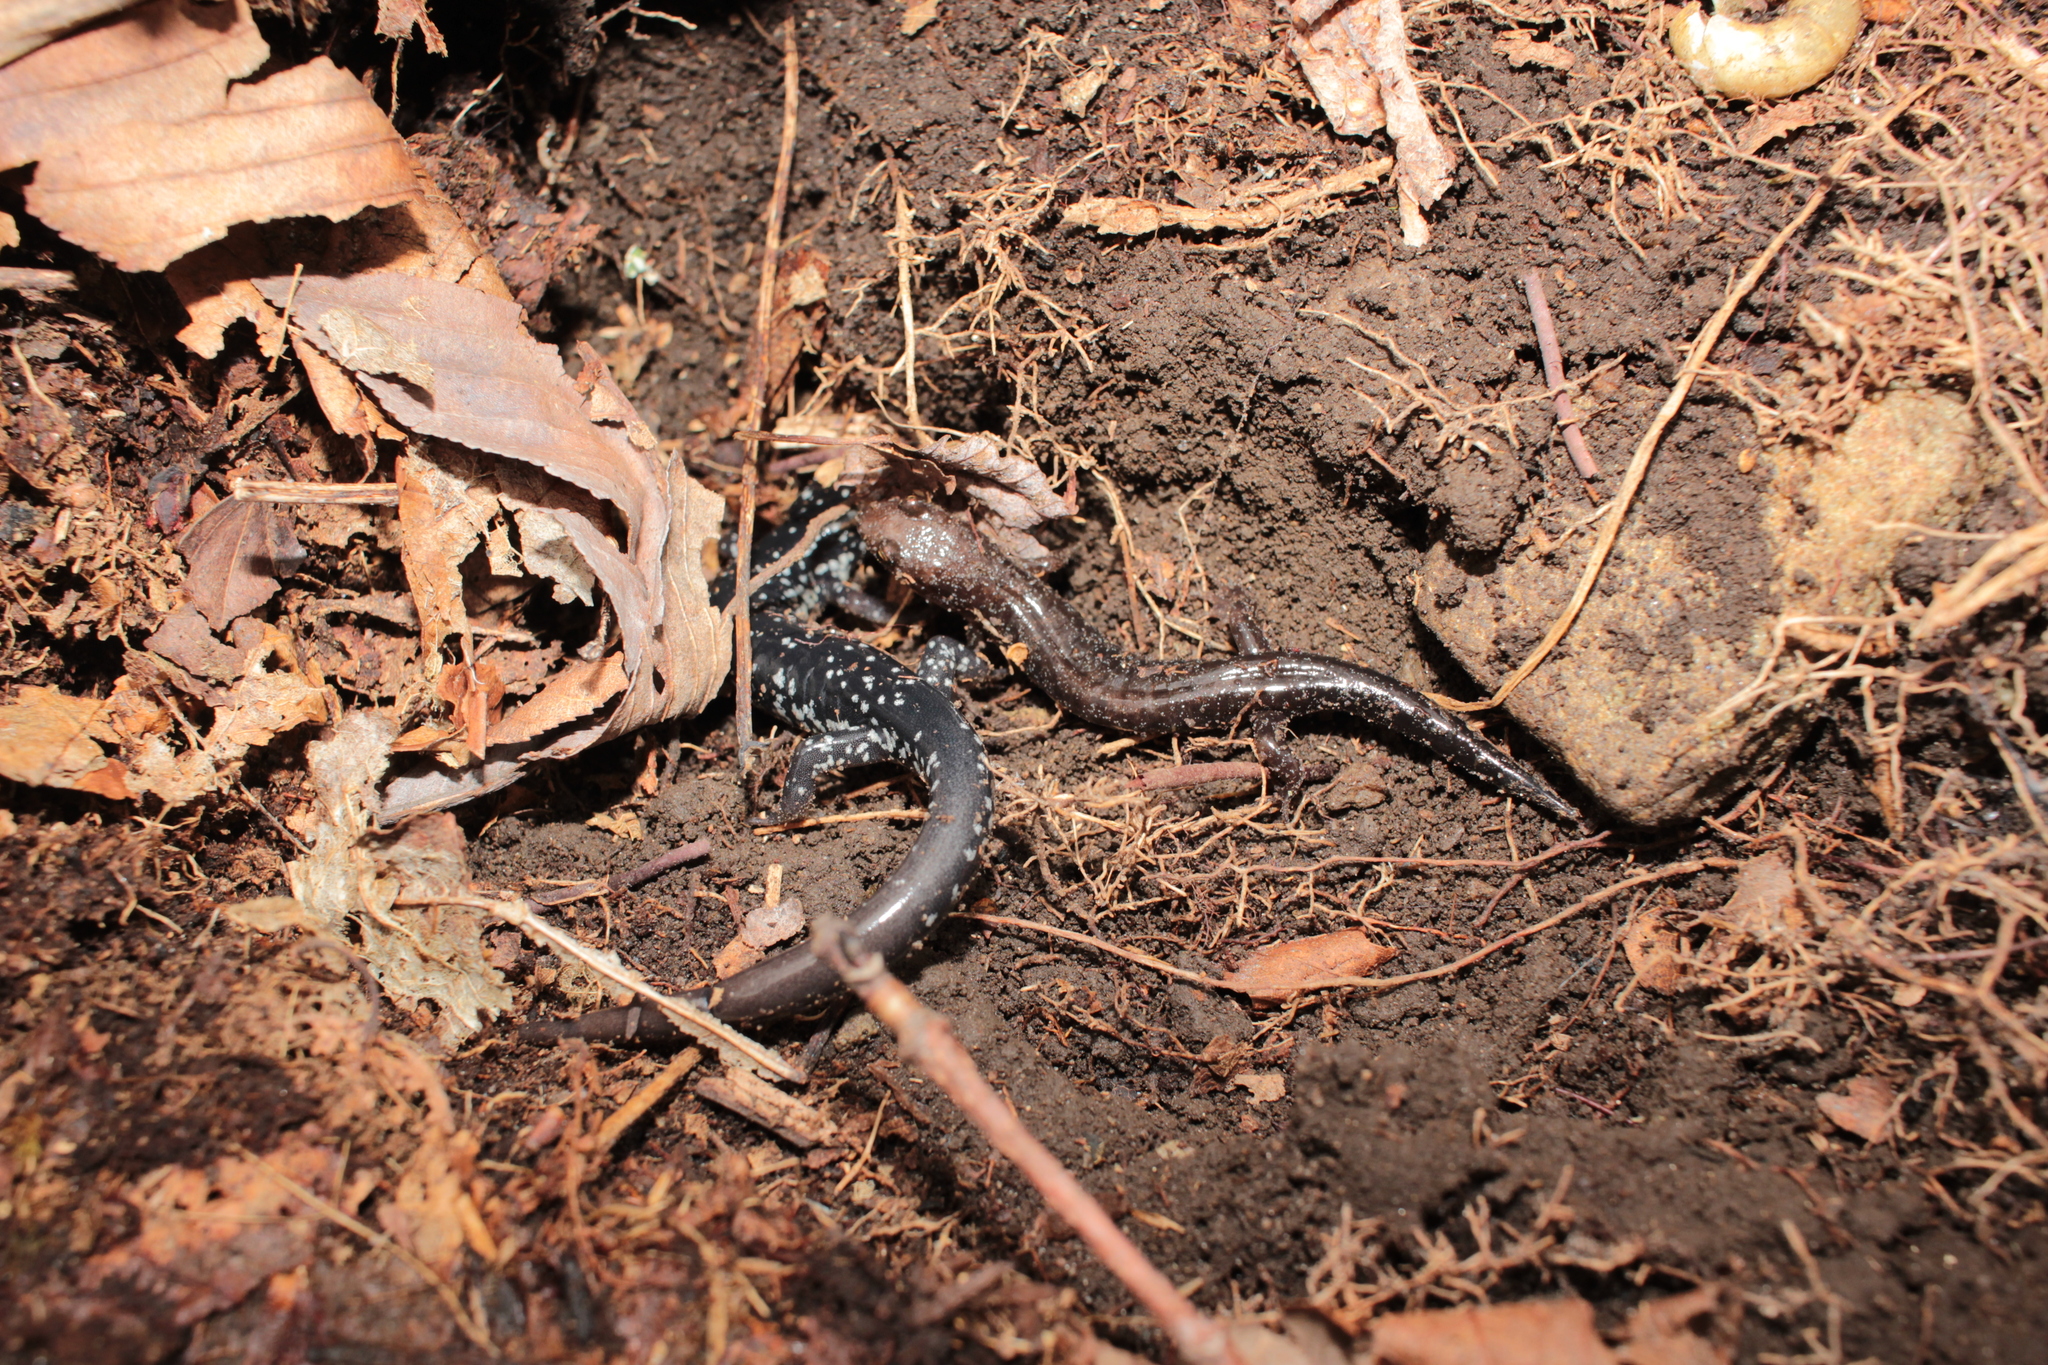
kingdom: Animalia
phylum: Chordata
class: Amphibia
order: Caudata
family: Plethodontidae
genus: Plethodon
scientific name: Plethodon cylindraceus
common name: White-spotted slimy salamander
